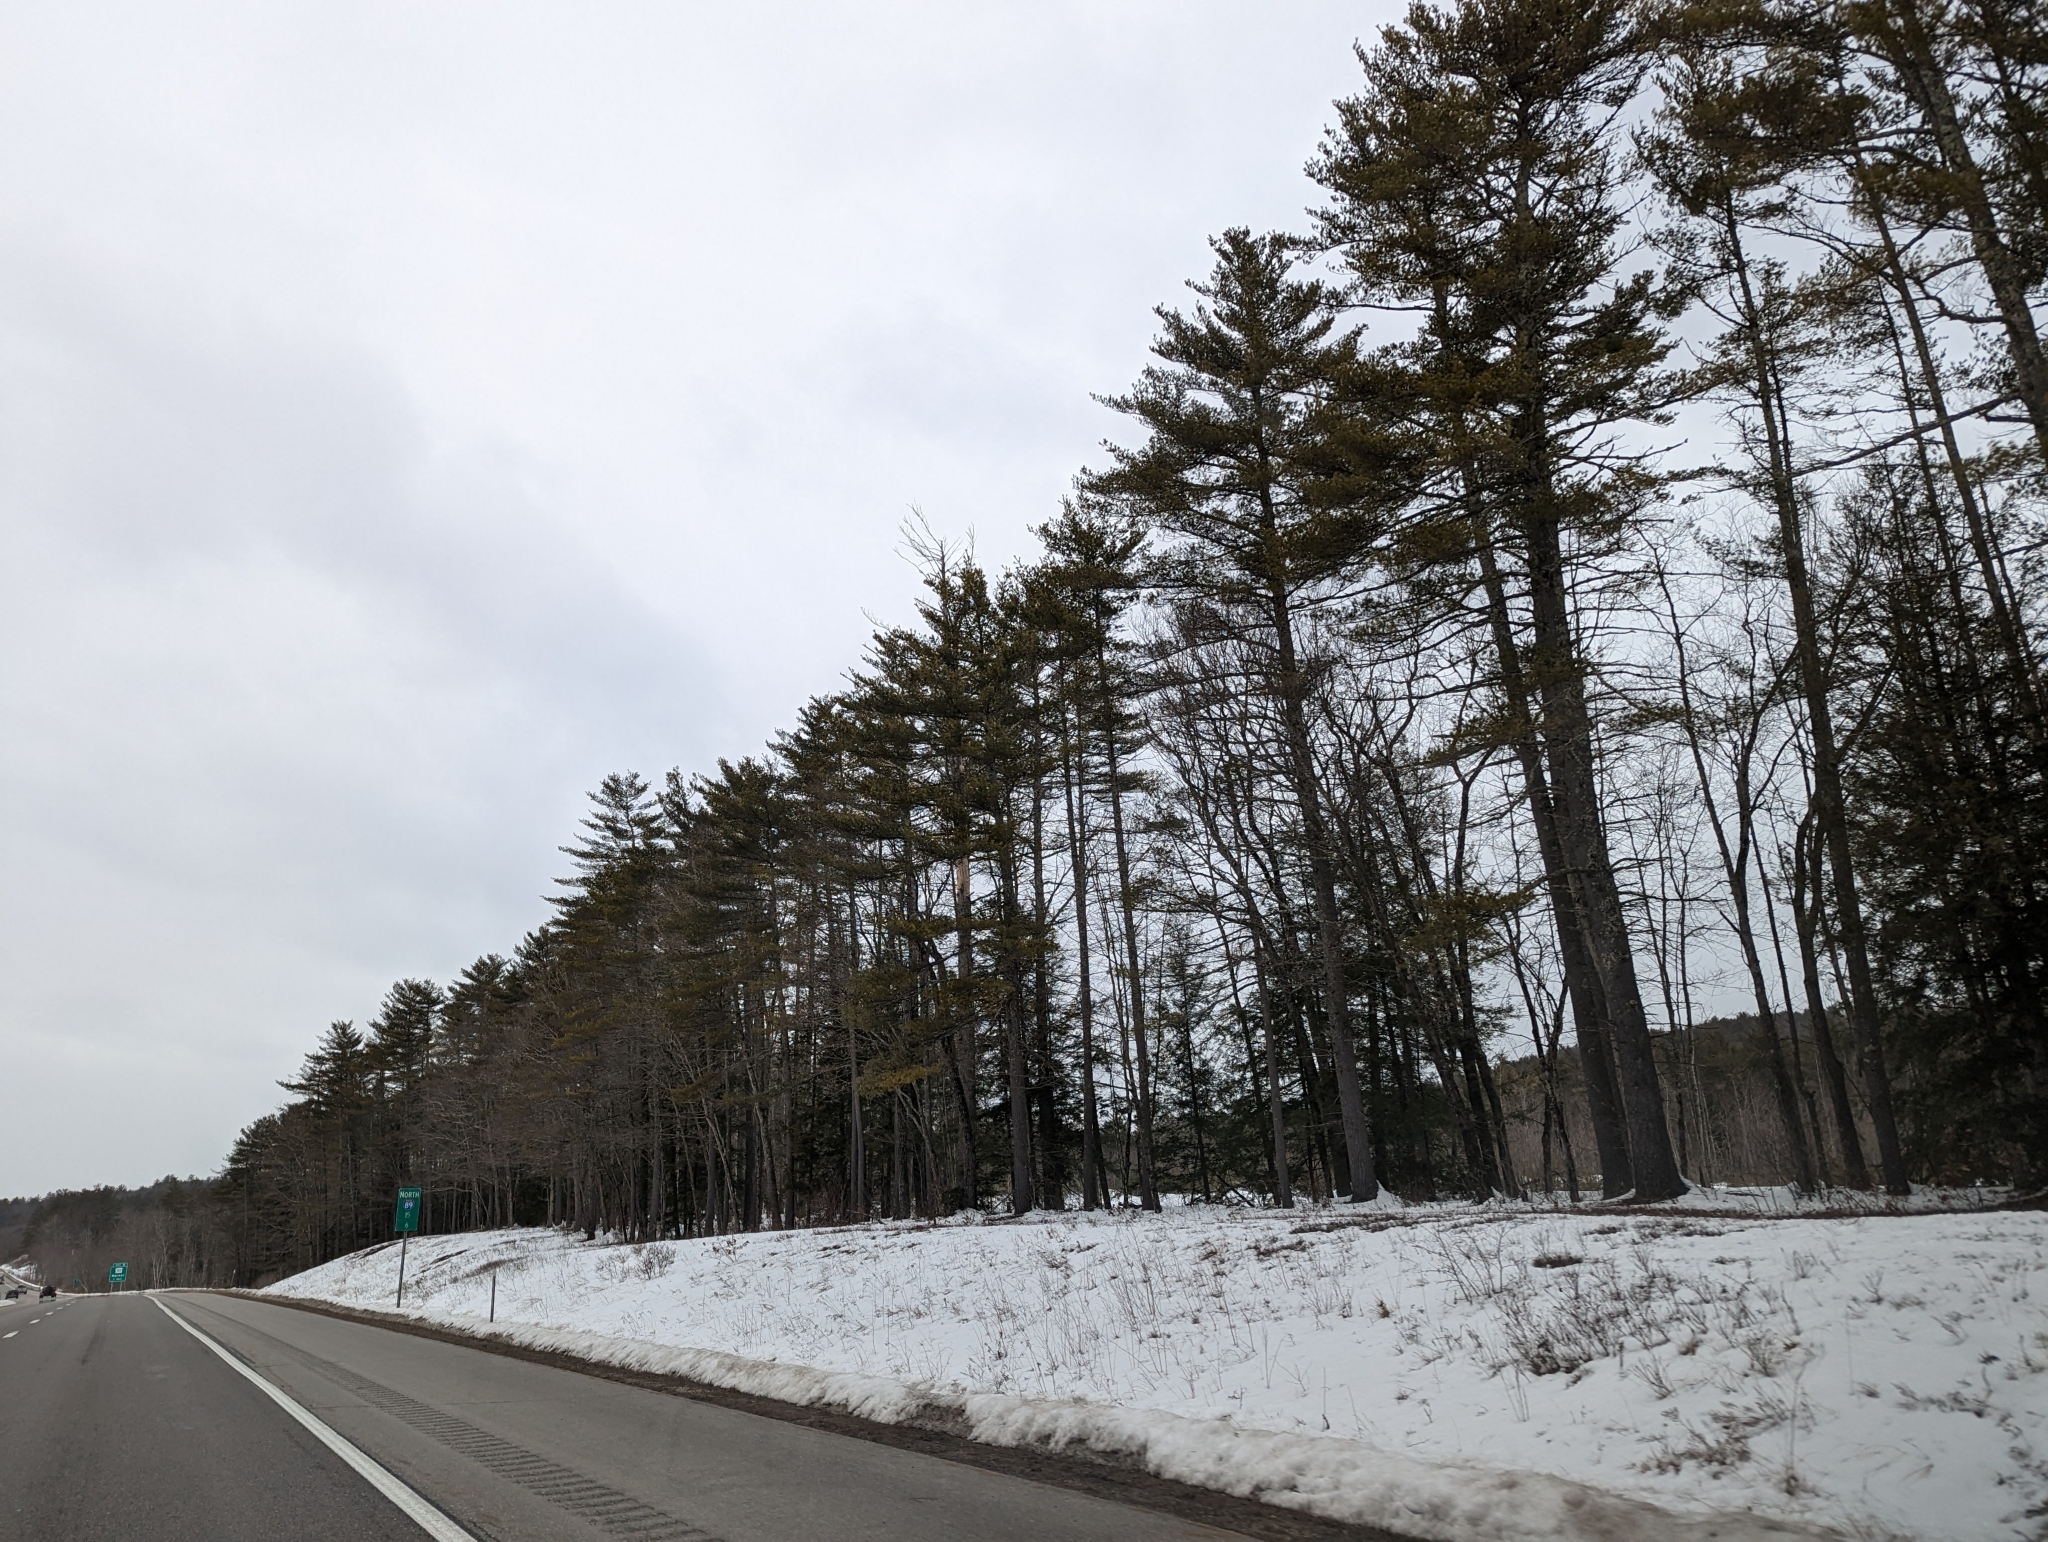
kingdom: Plantae
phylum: Tracheophyta
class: Pinopsida
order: Pinales
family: Pinaceae
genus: Pinus
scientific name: Pinus strobus
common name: Weymouth pine
